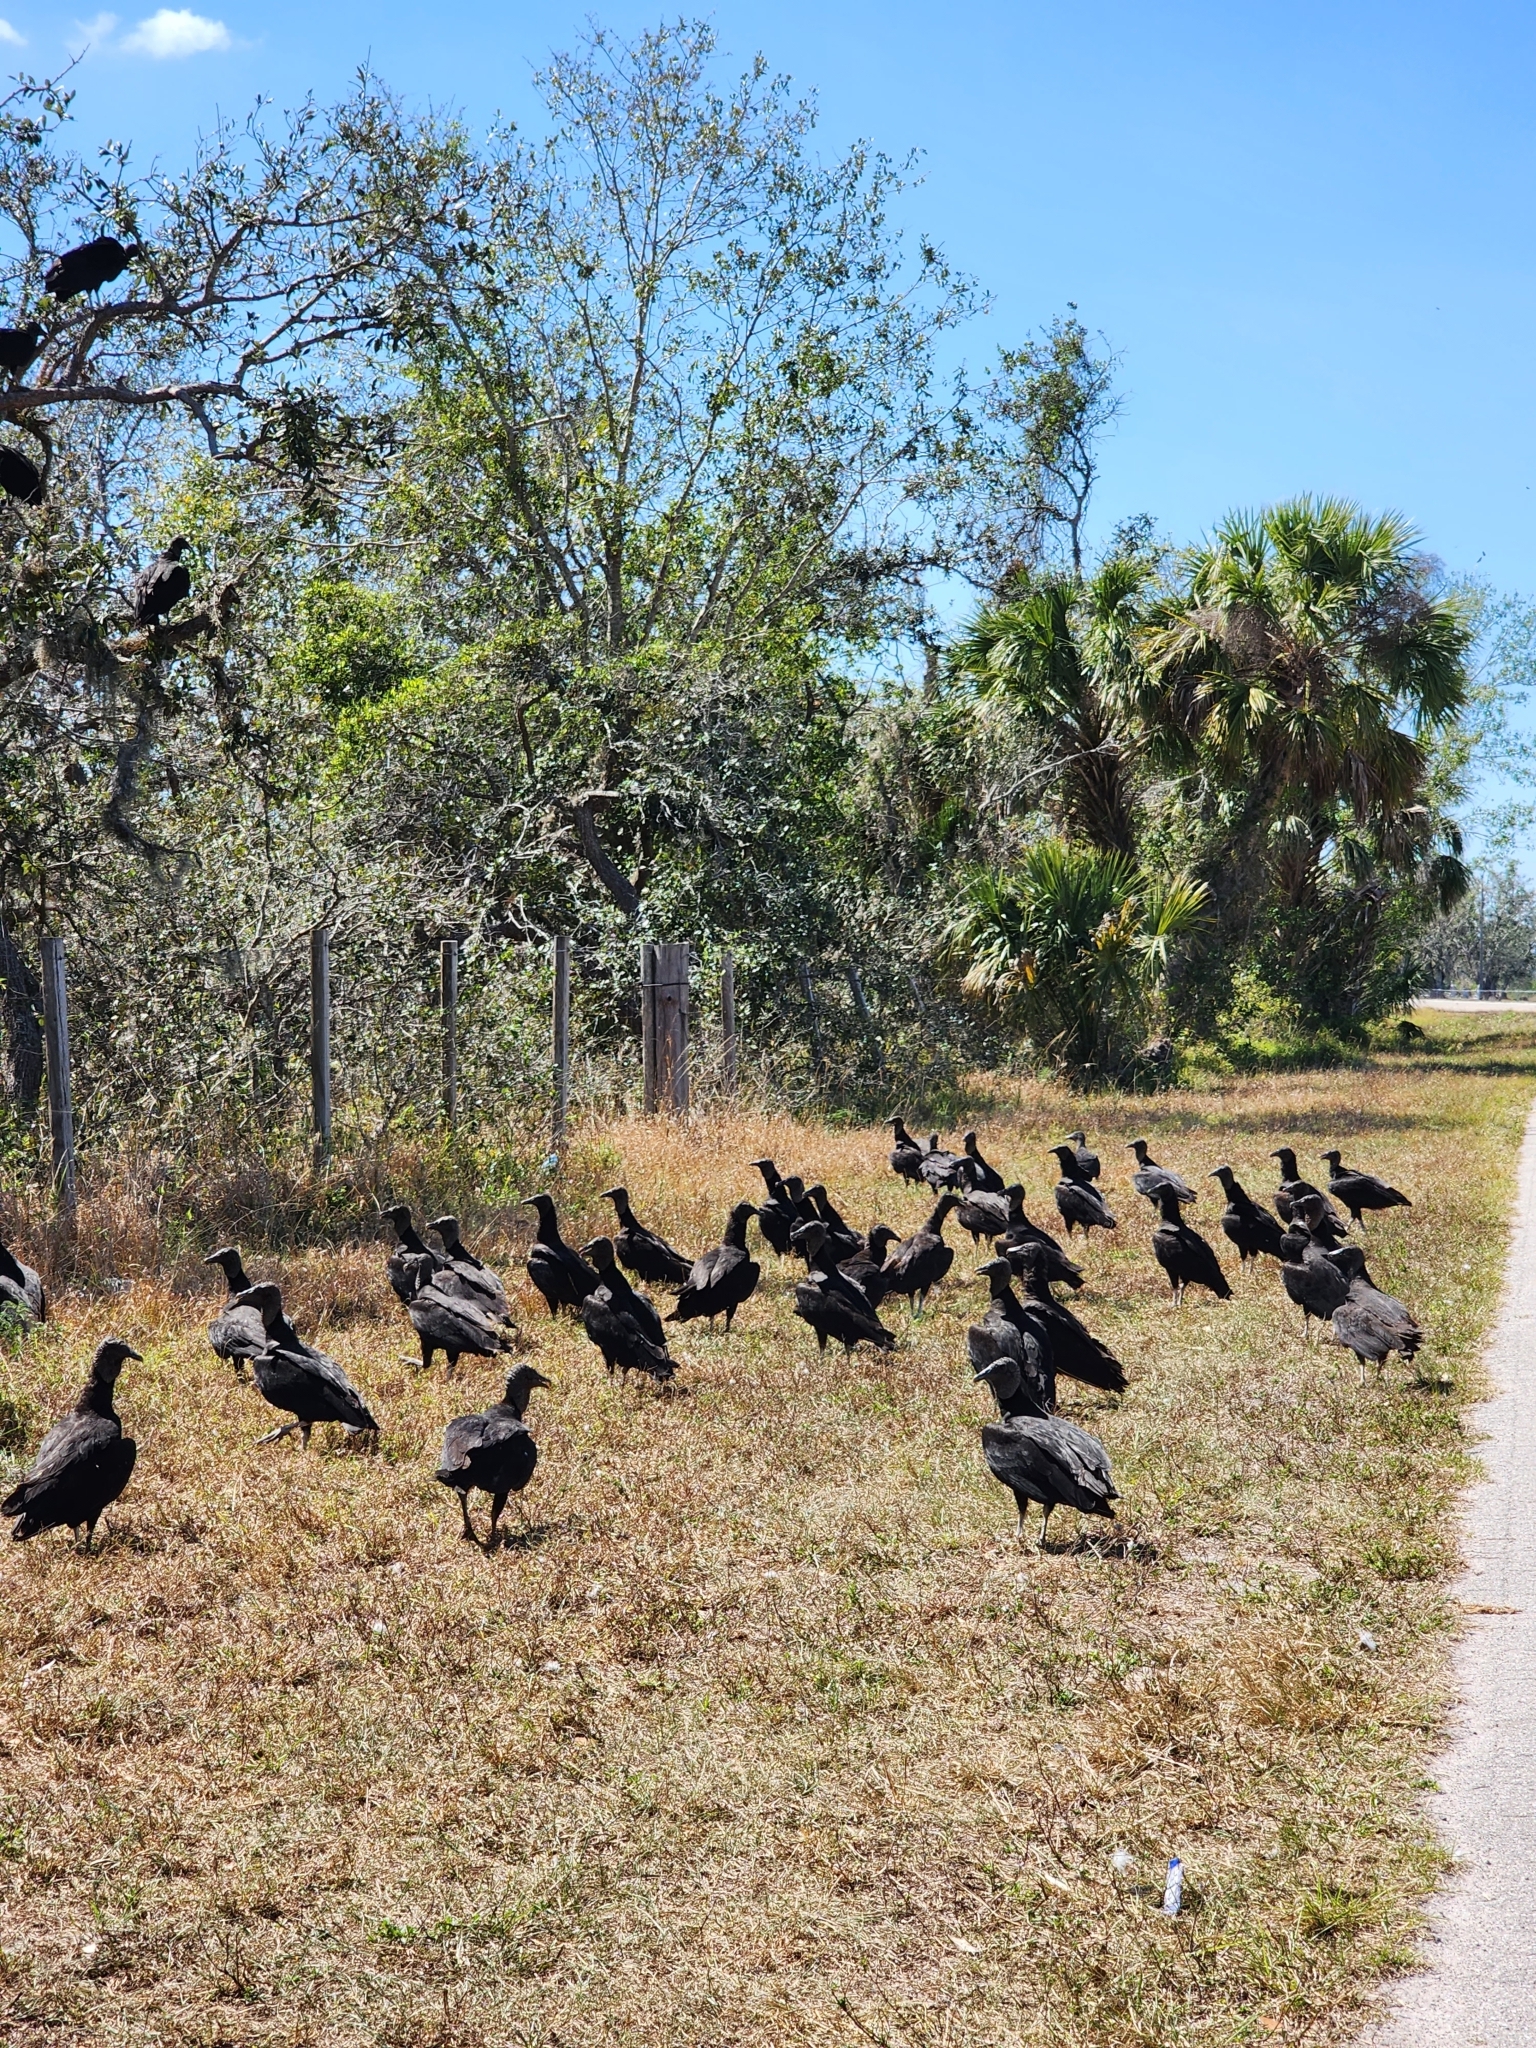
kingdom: Animalia
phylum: Chordata
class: Aves
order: Accipitriformes
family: Cathartidae
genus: Coragyps
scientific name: Coragyps atratus
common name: Black vulture
